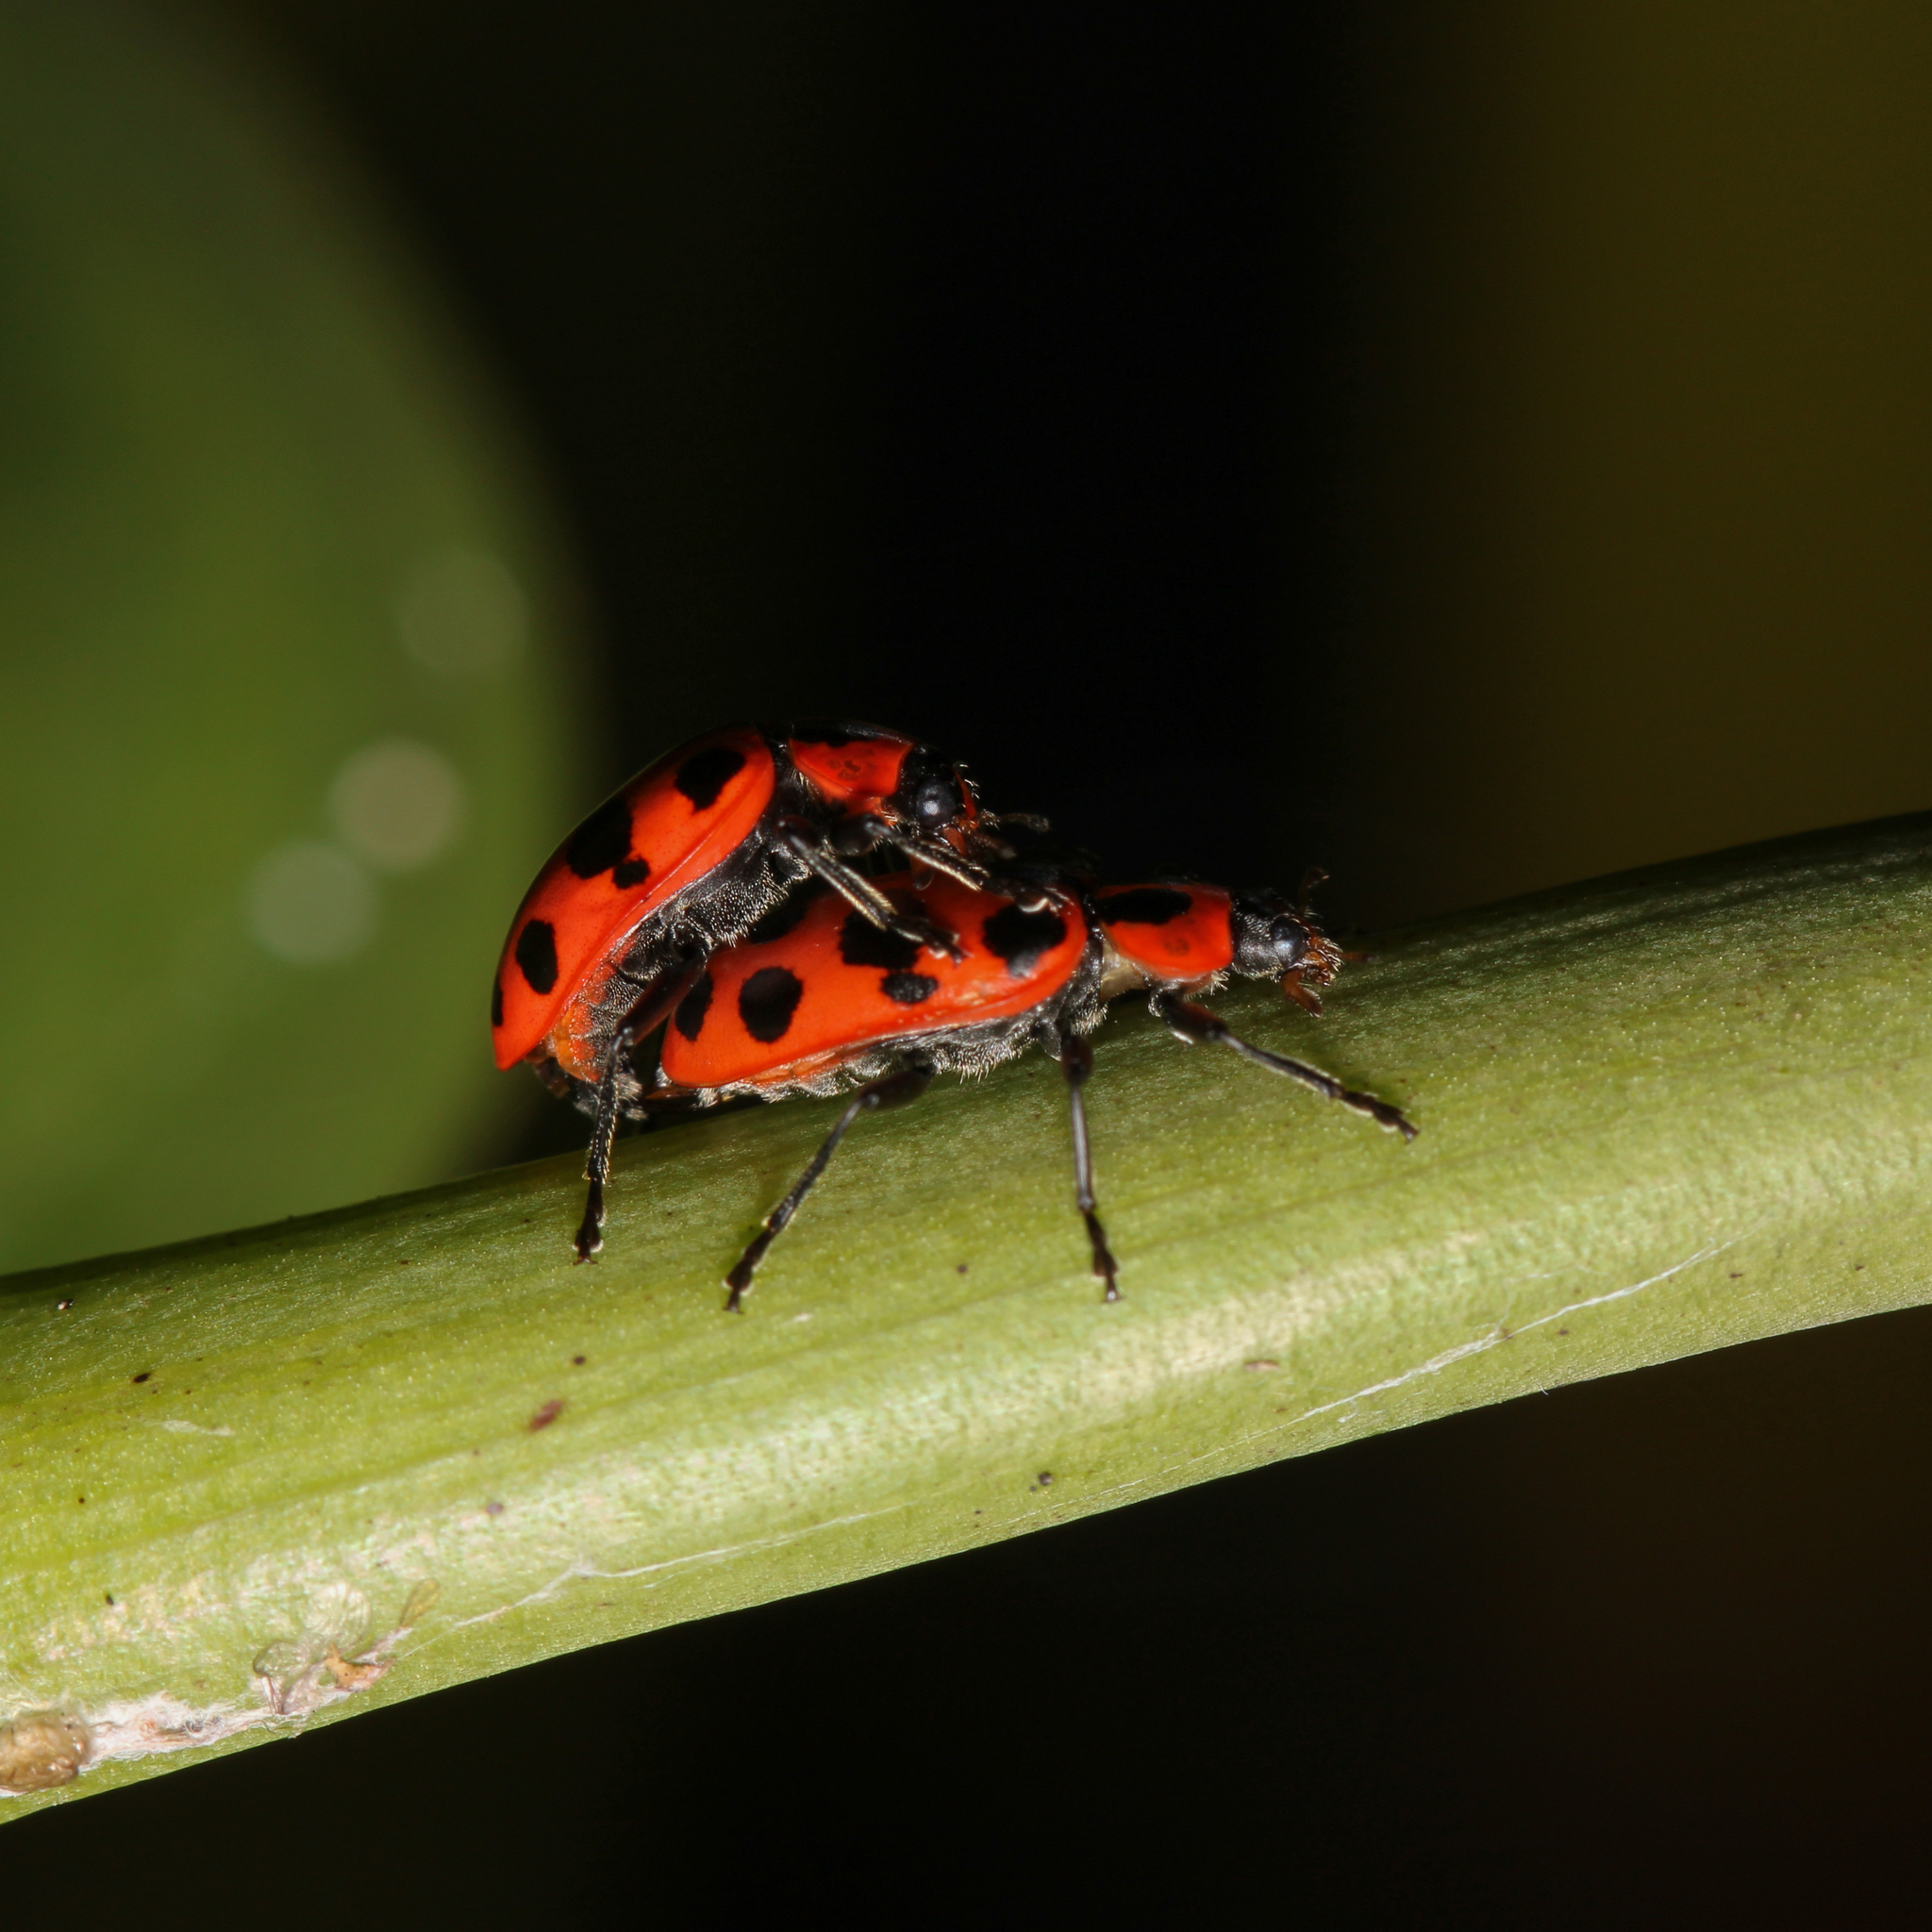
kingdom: Animalia
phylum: Arthropoda
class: Insecta
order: Coleoptera
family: Coccinellidae
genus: Coleomegilla
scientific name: Coleomegilla maculata
